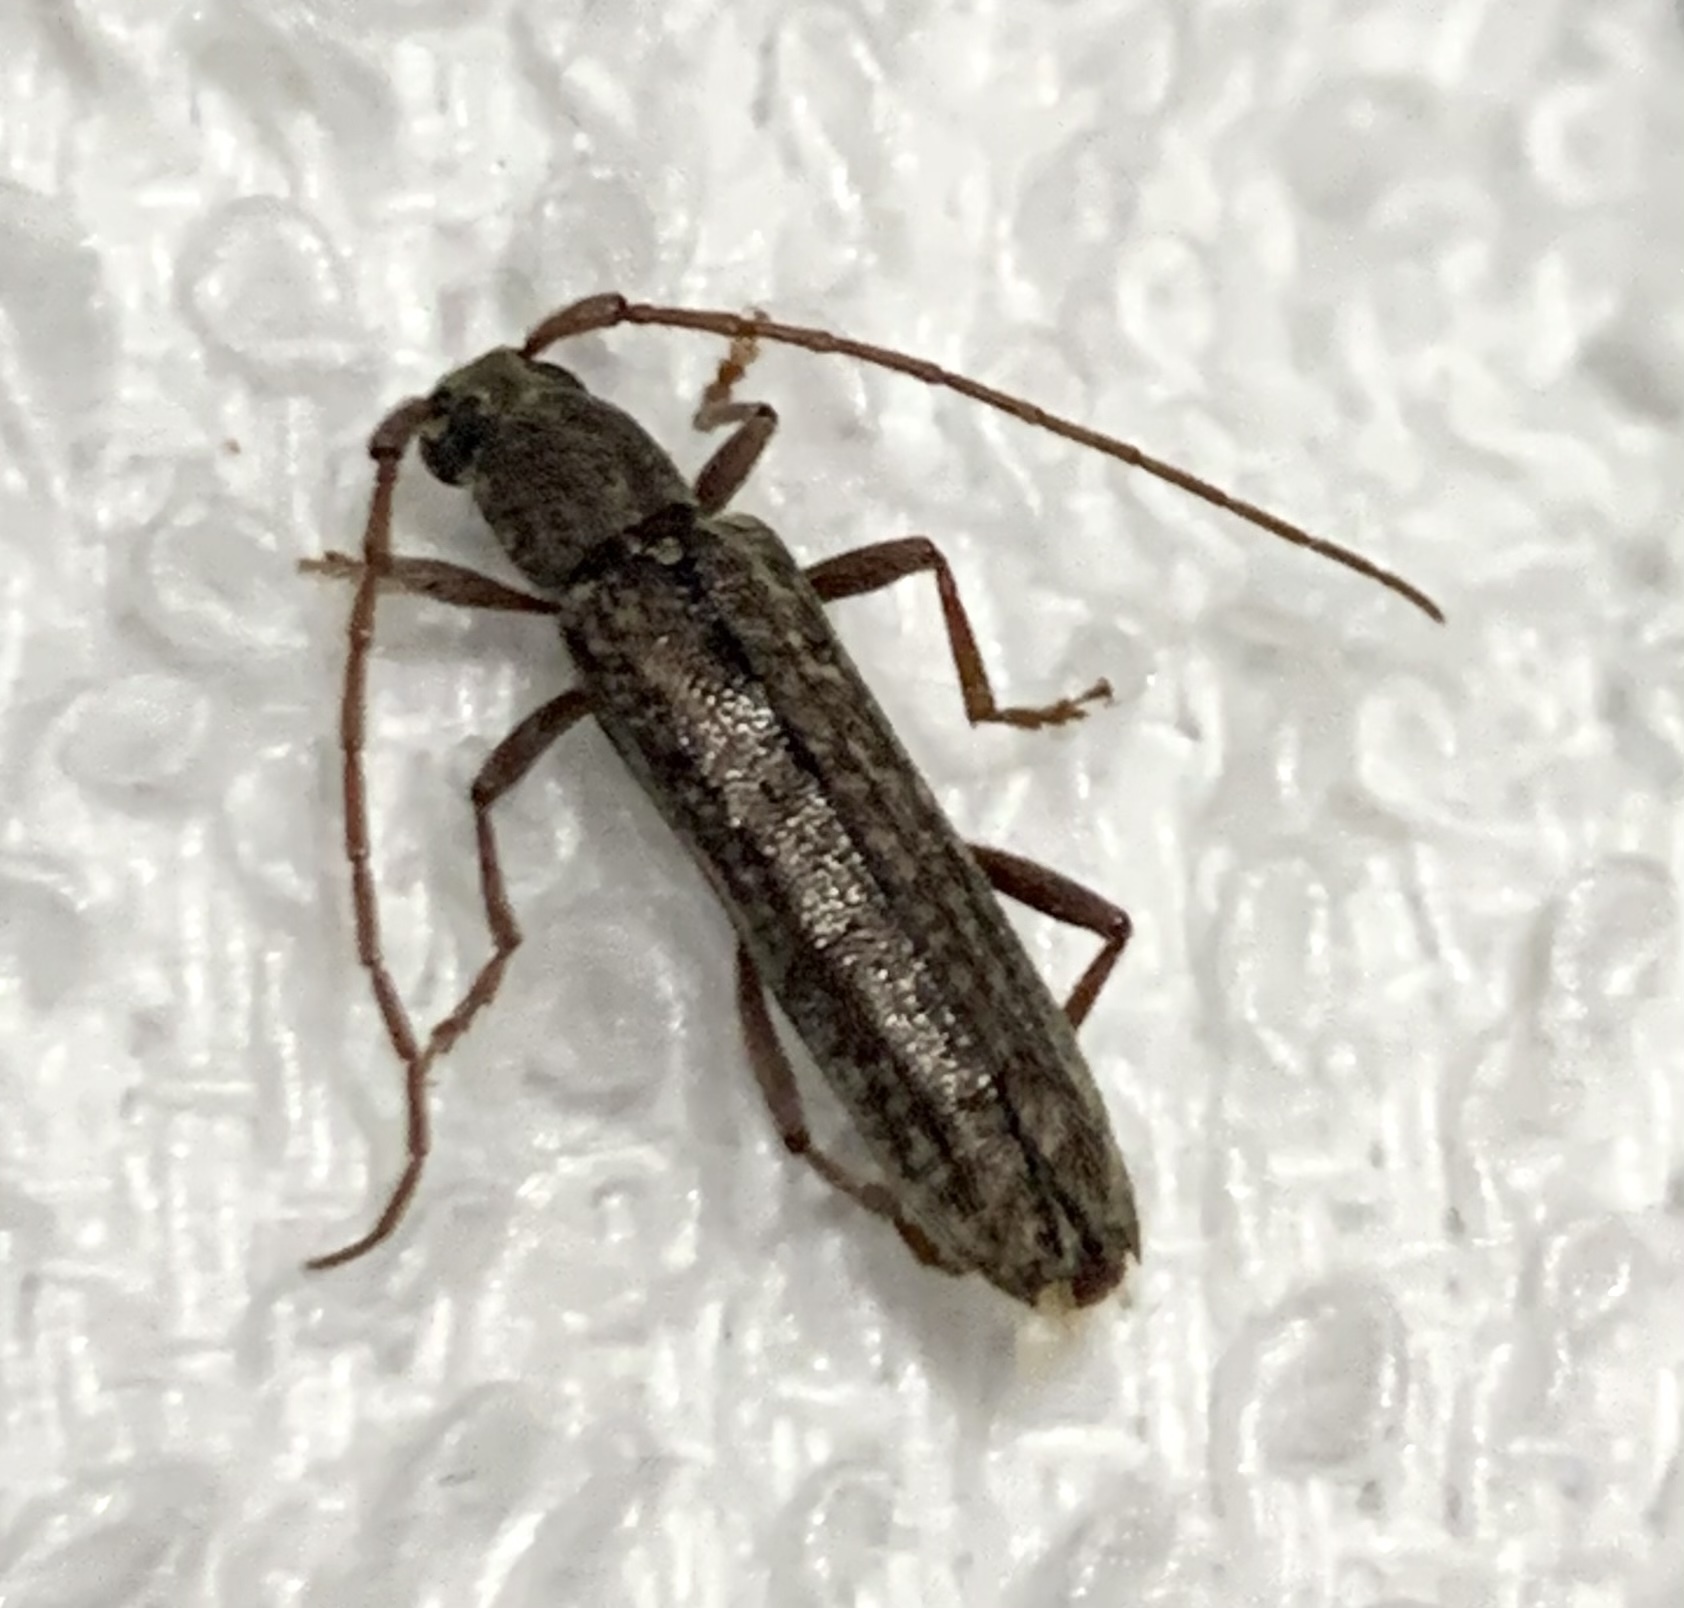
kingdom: Animalia
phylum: Arthropoda
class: Insecta
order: Coleoptera
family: Cerambycidae
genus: Anelaphus
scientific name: Anelaphus villosus
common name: Twig pruner
